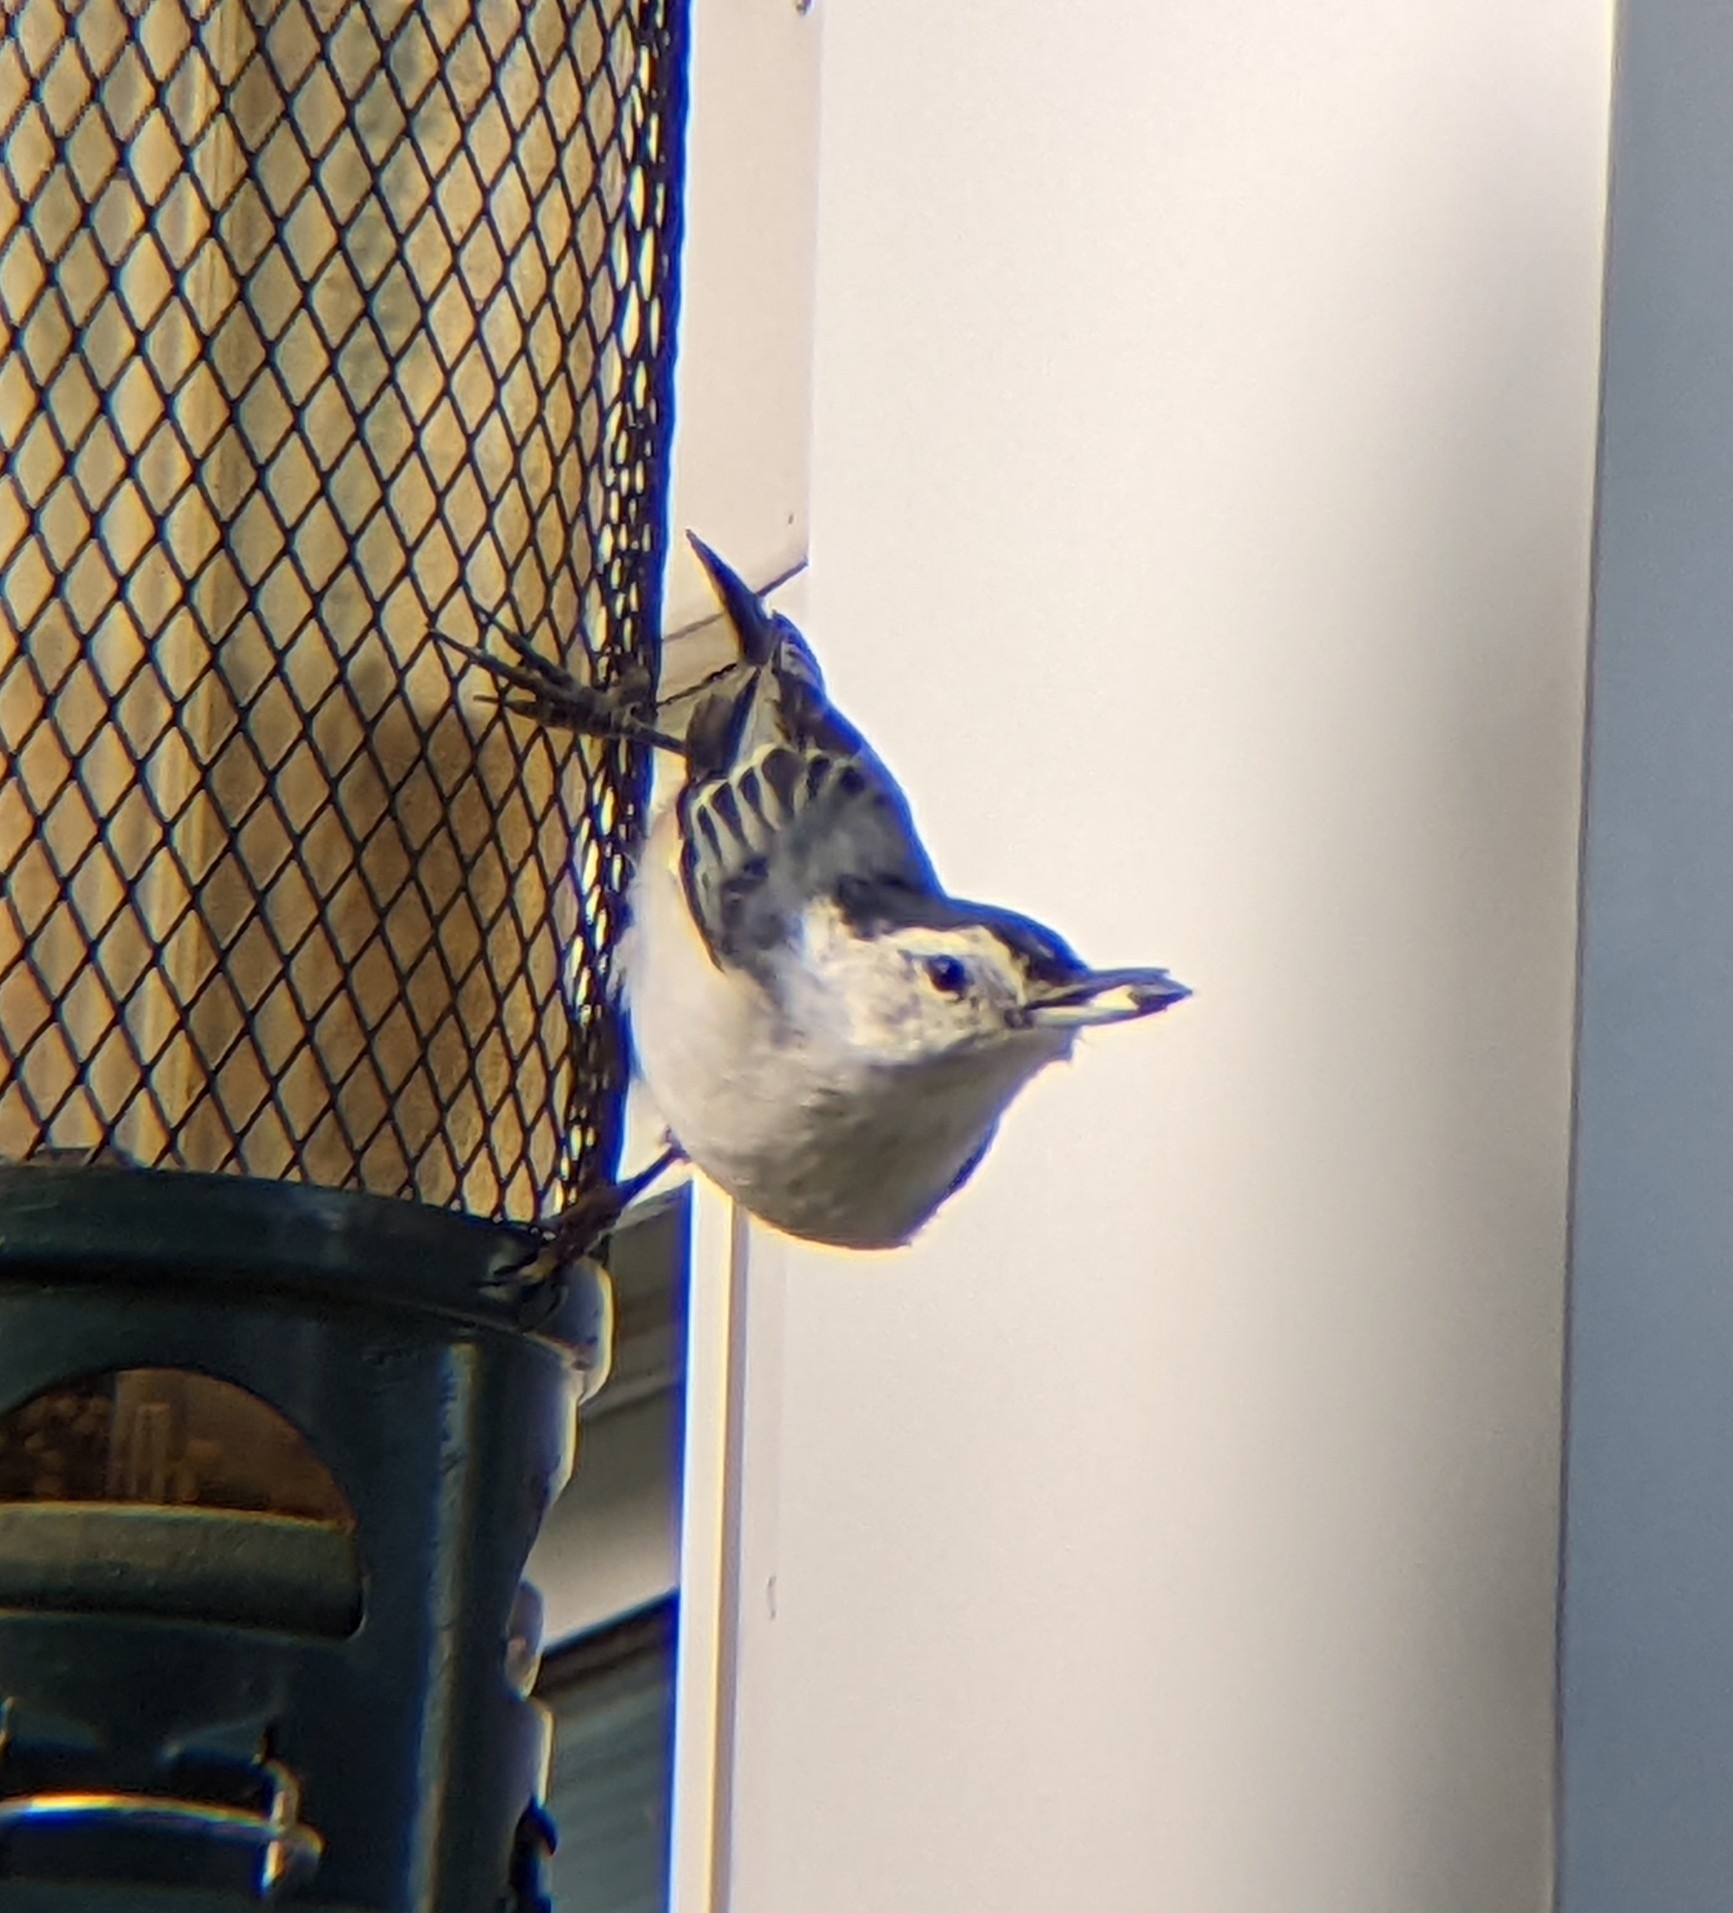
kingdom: Animalia
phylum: Chordata
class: Aves
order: Passeriformes
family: Sittidae
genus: Sitta
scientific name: Sitta carolinensis
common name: White-breasted nuthatch
